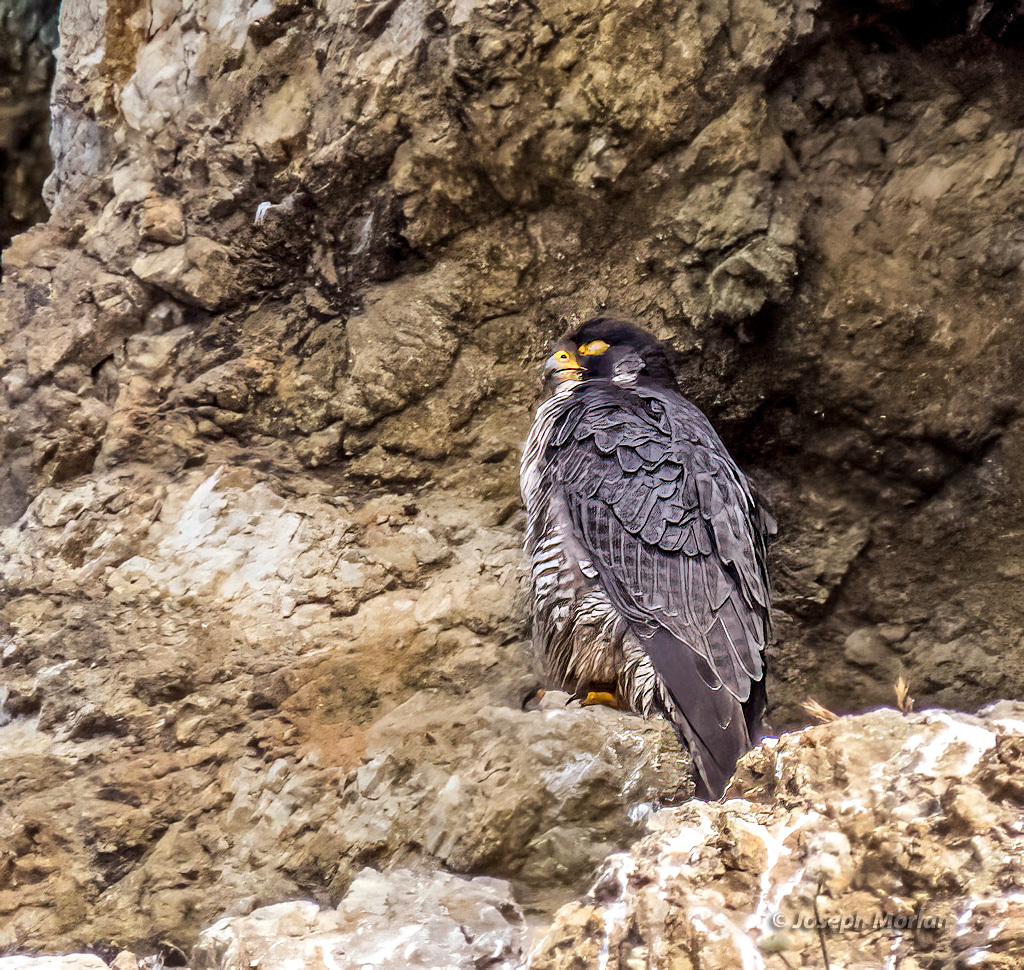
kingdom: Animalia
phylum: Chordata
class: Aves
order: Falconiformes
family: Falconidae
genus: Falco
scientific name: Falco peregrinus
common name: Peregrine falcon
